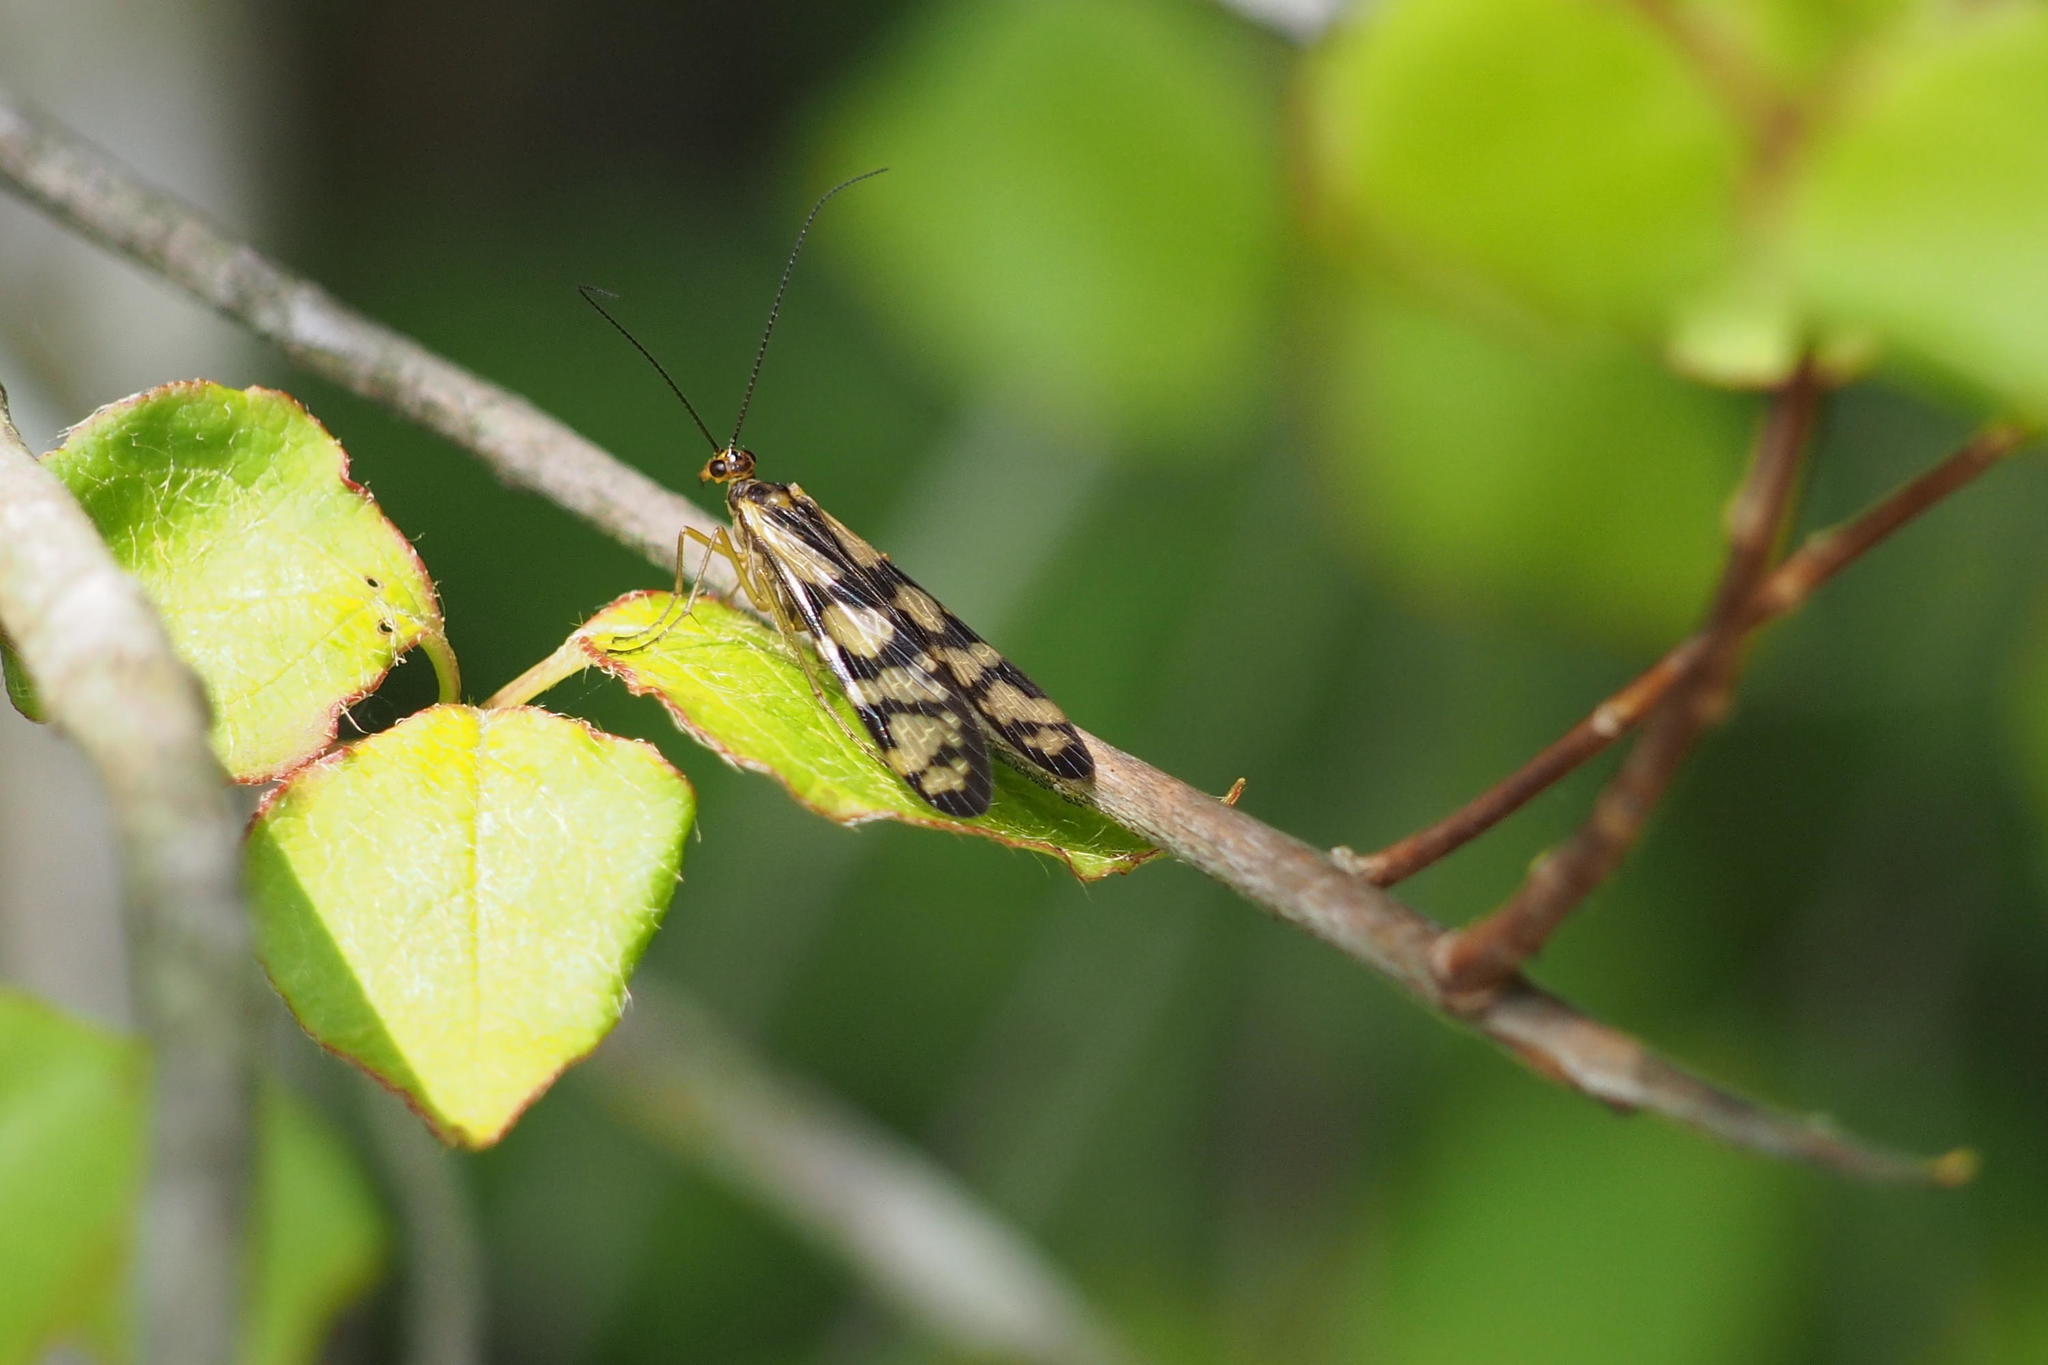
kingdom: Animalia
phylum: Arthropoda
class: Insecta
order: Mecoptera
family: Panorpodidae
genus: Panorpodes
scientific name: Panorpodes paradoxus
